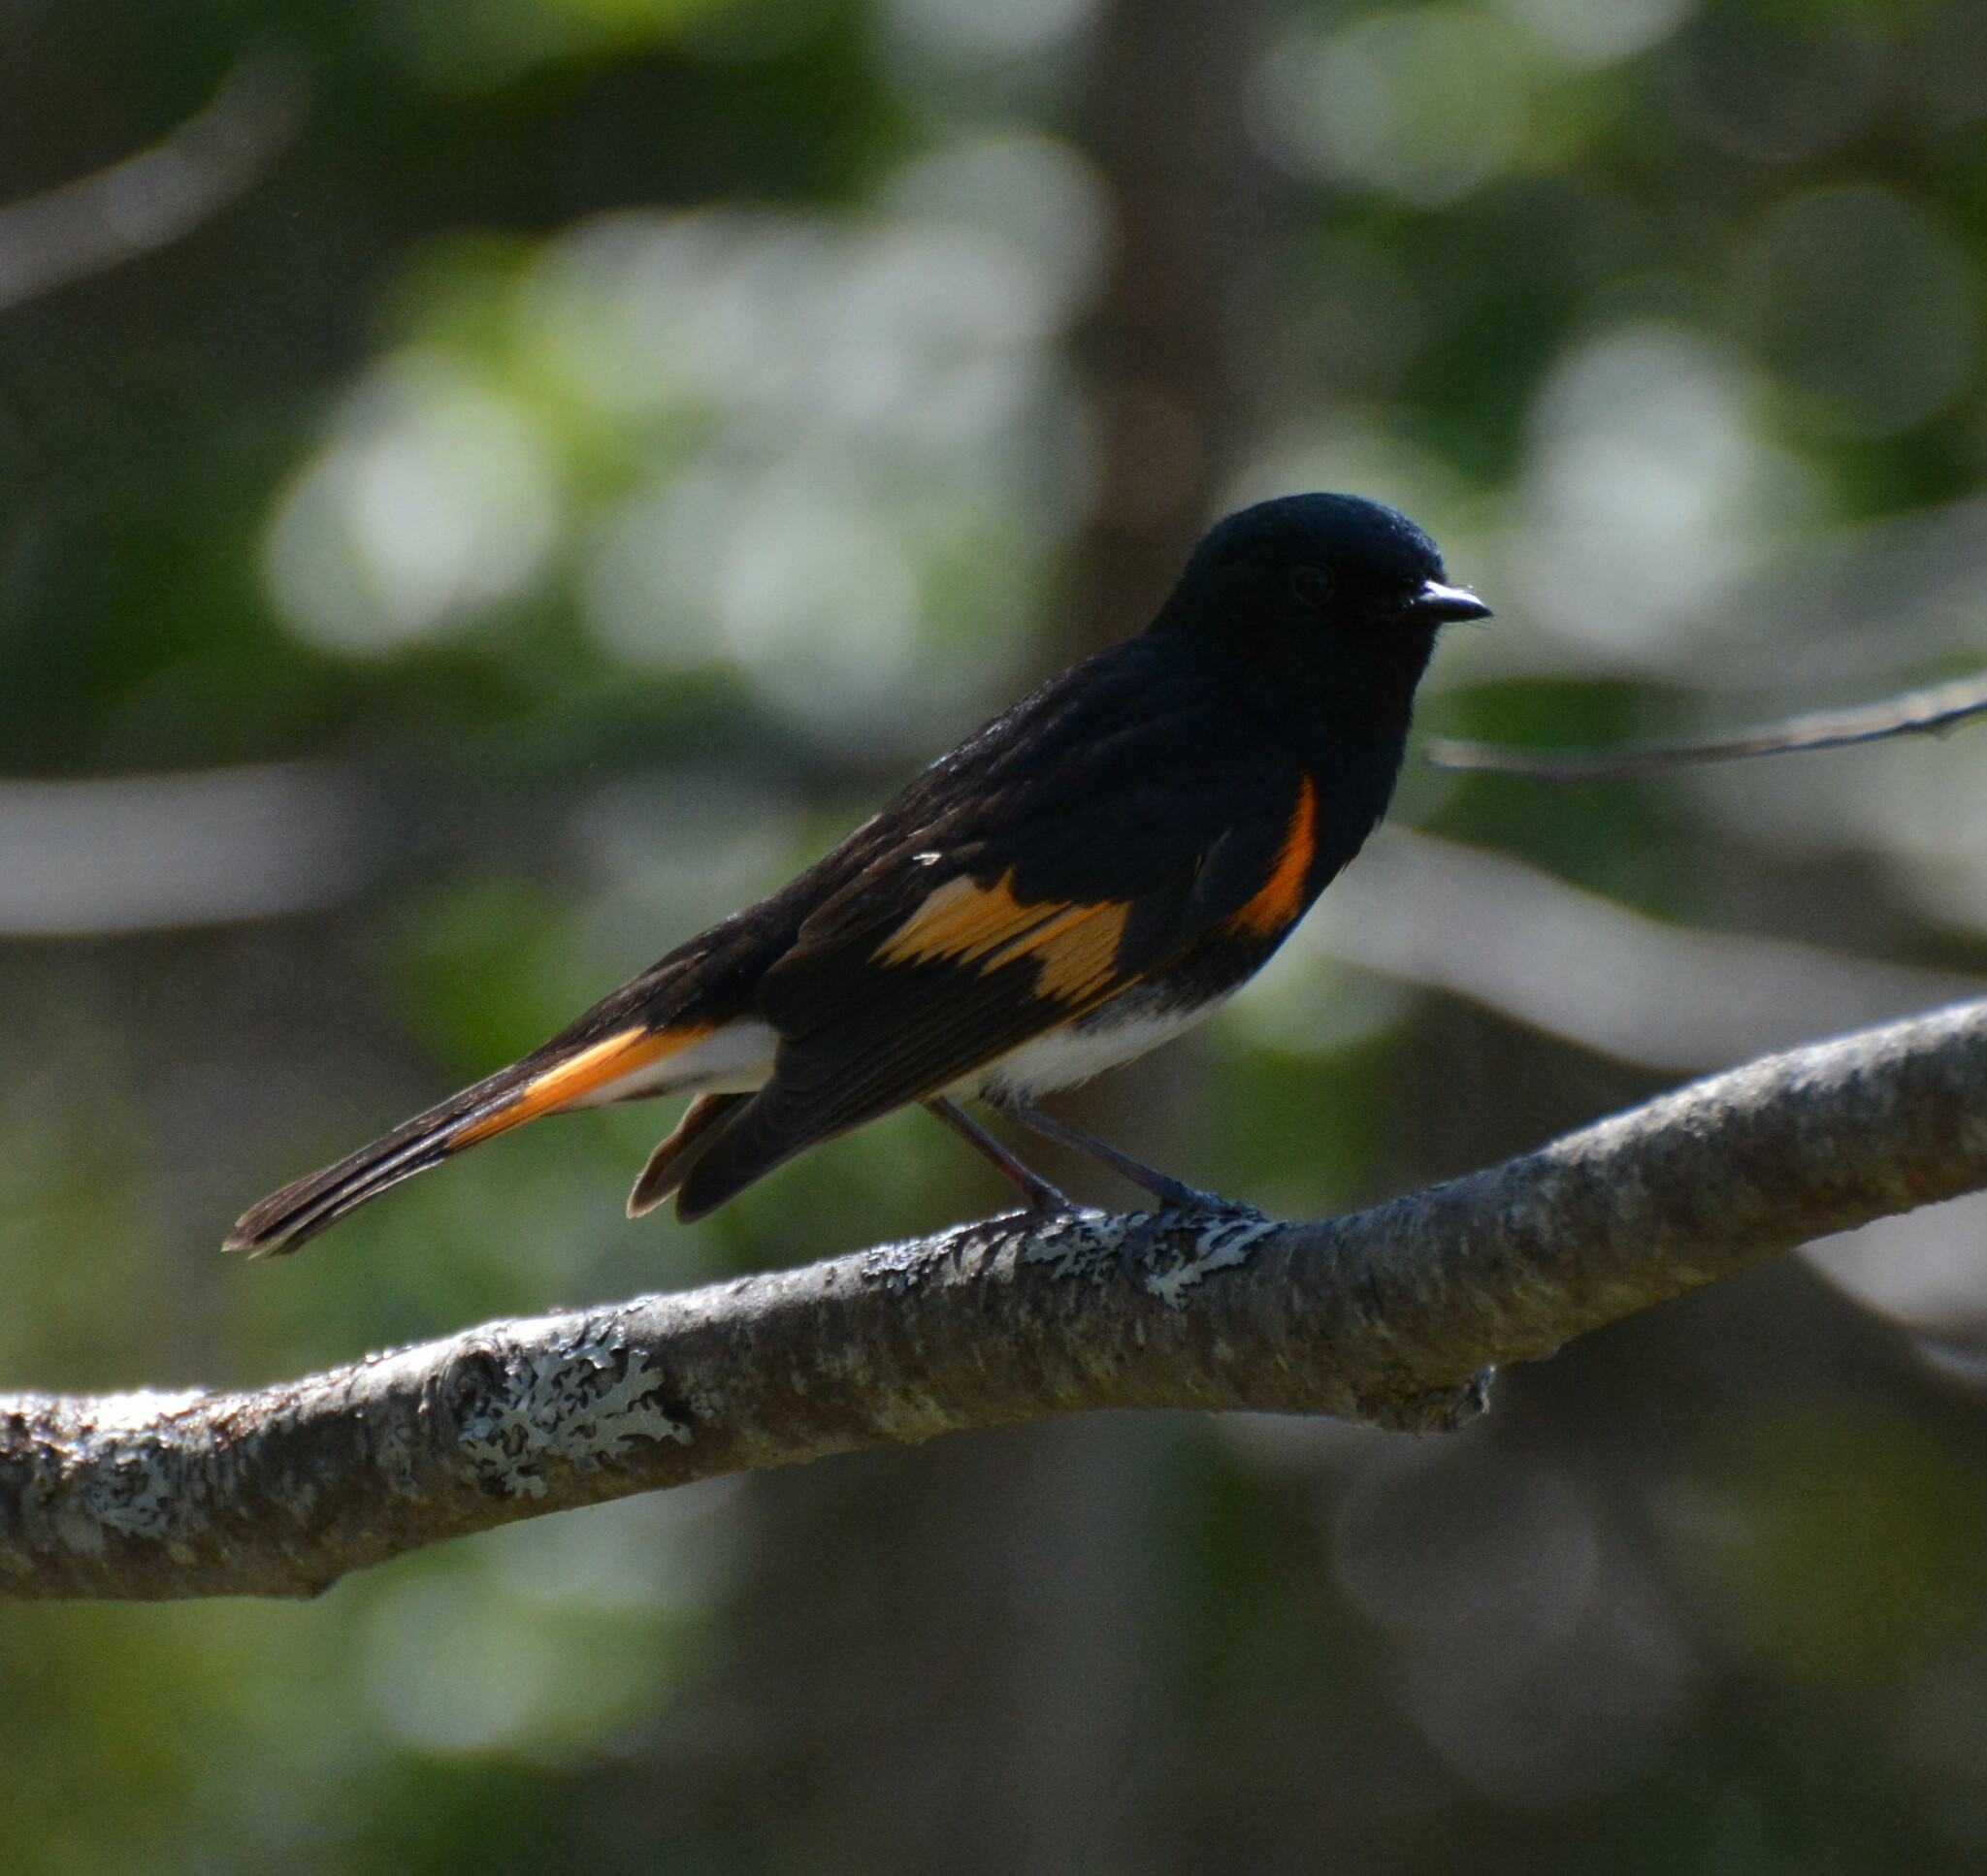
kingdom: Animalia
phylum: Chordata
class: Aves
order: Passeriformes
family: Parulidae
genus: Setophaga
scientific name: Setophaga ruticilla
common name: American redstart
